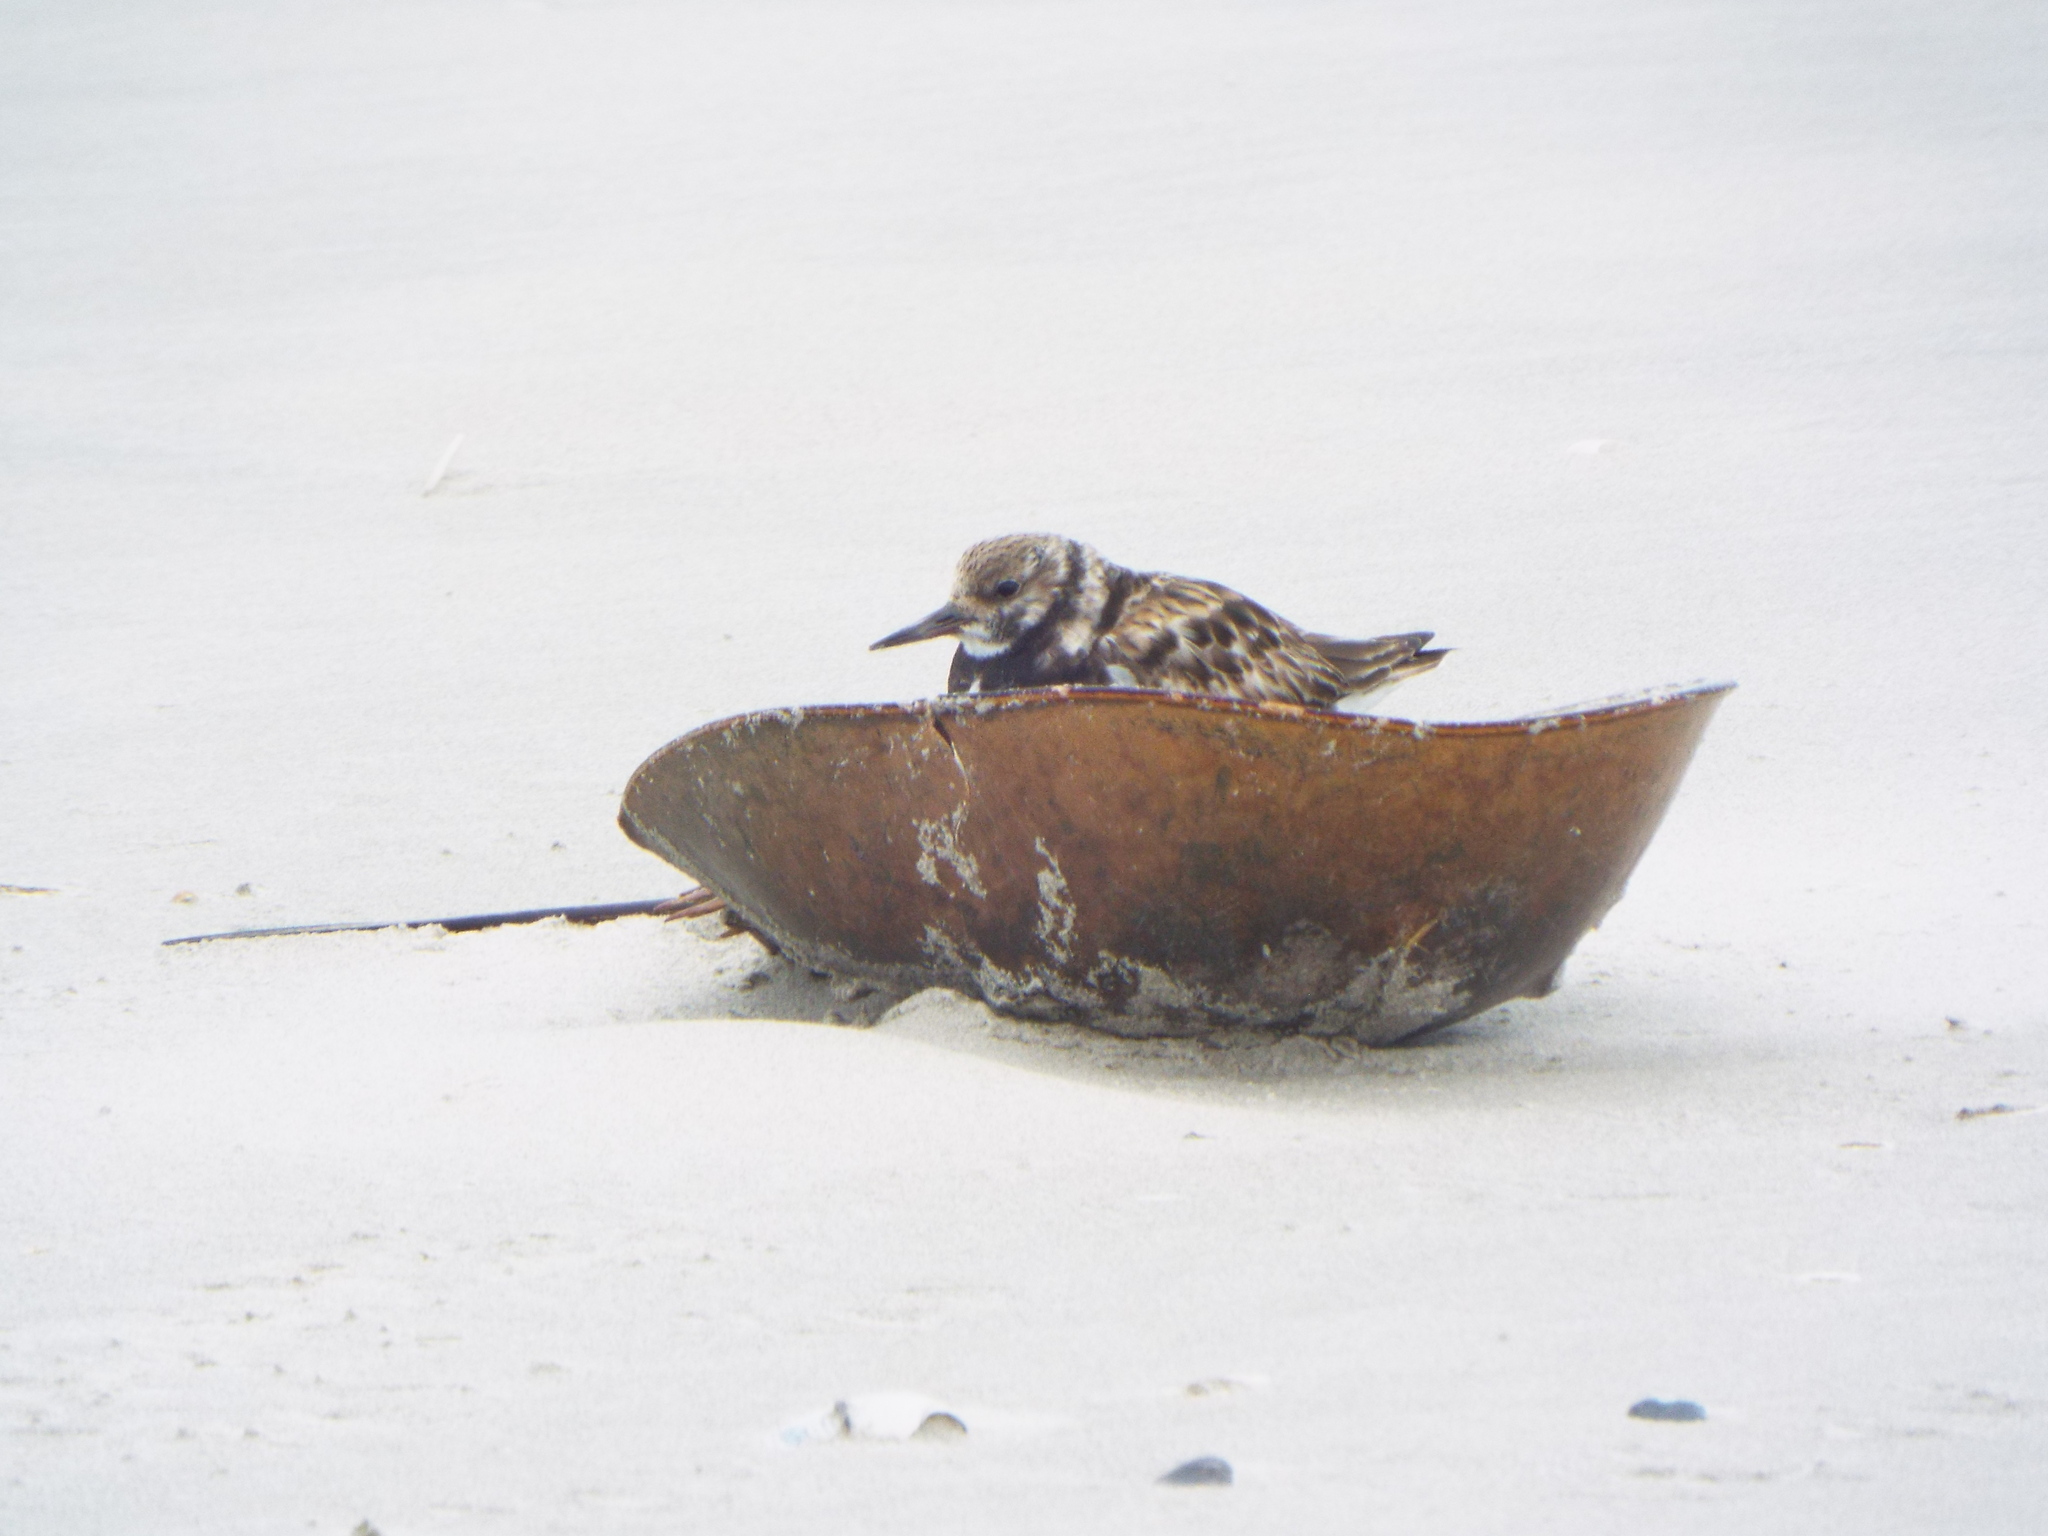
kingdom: Animalia
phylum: Chordata
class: Aves
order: Charadriiformes
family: Scolopacidae
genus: Arenaria
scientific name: Arenaria interpres
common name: Ruddy turnstone
